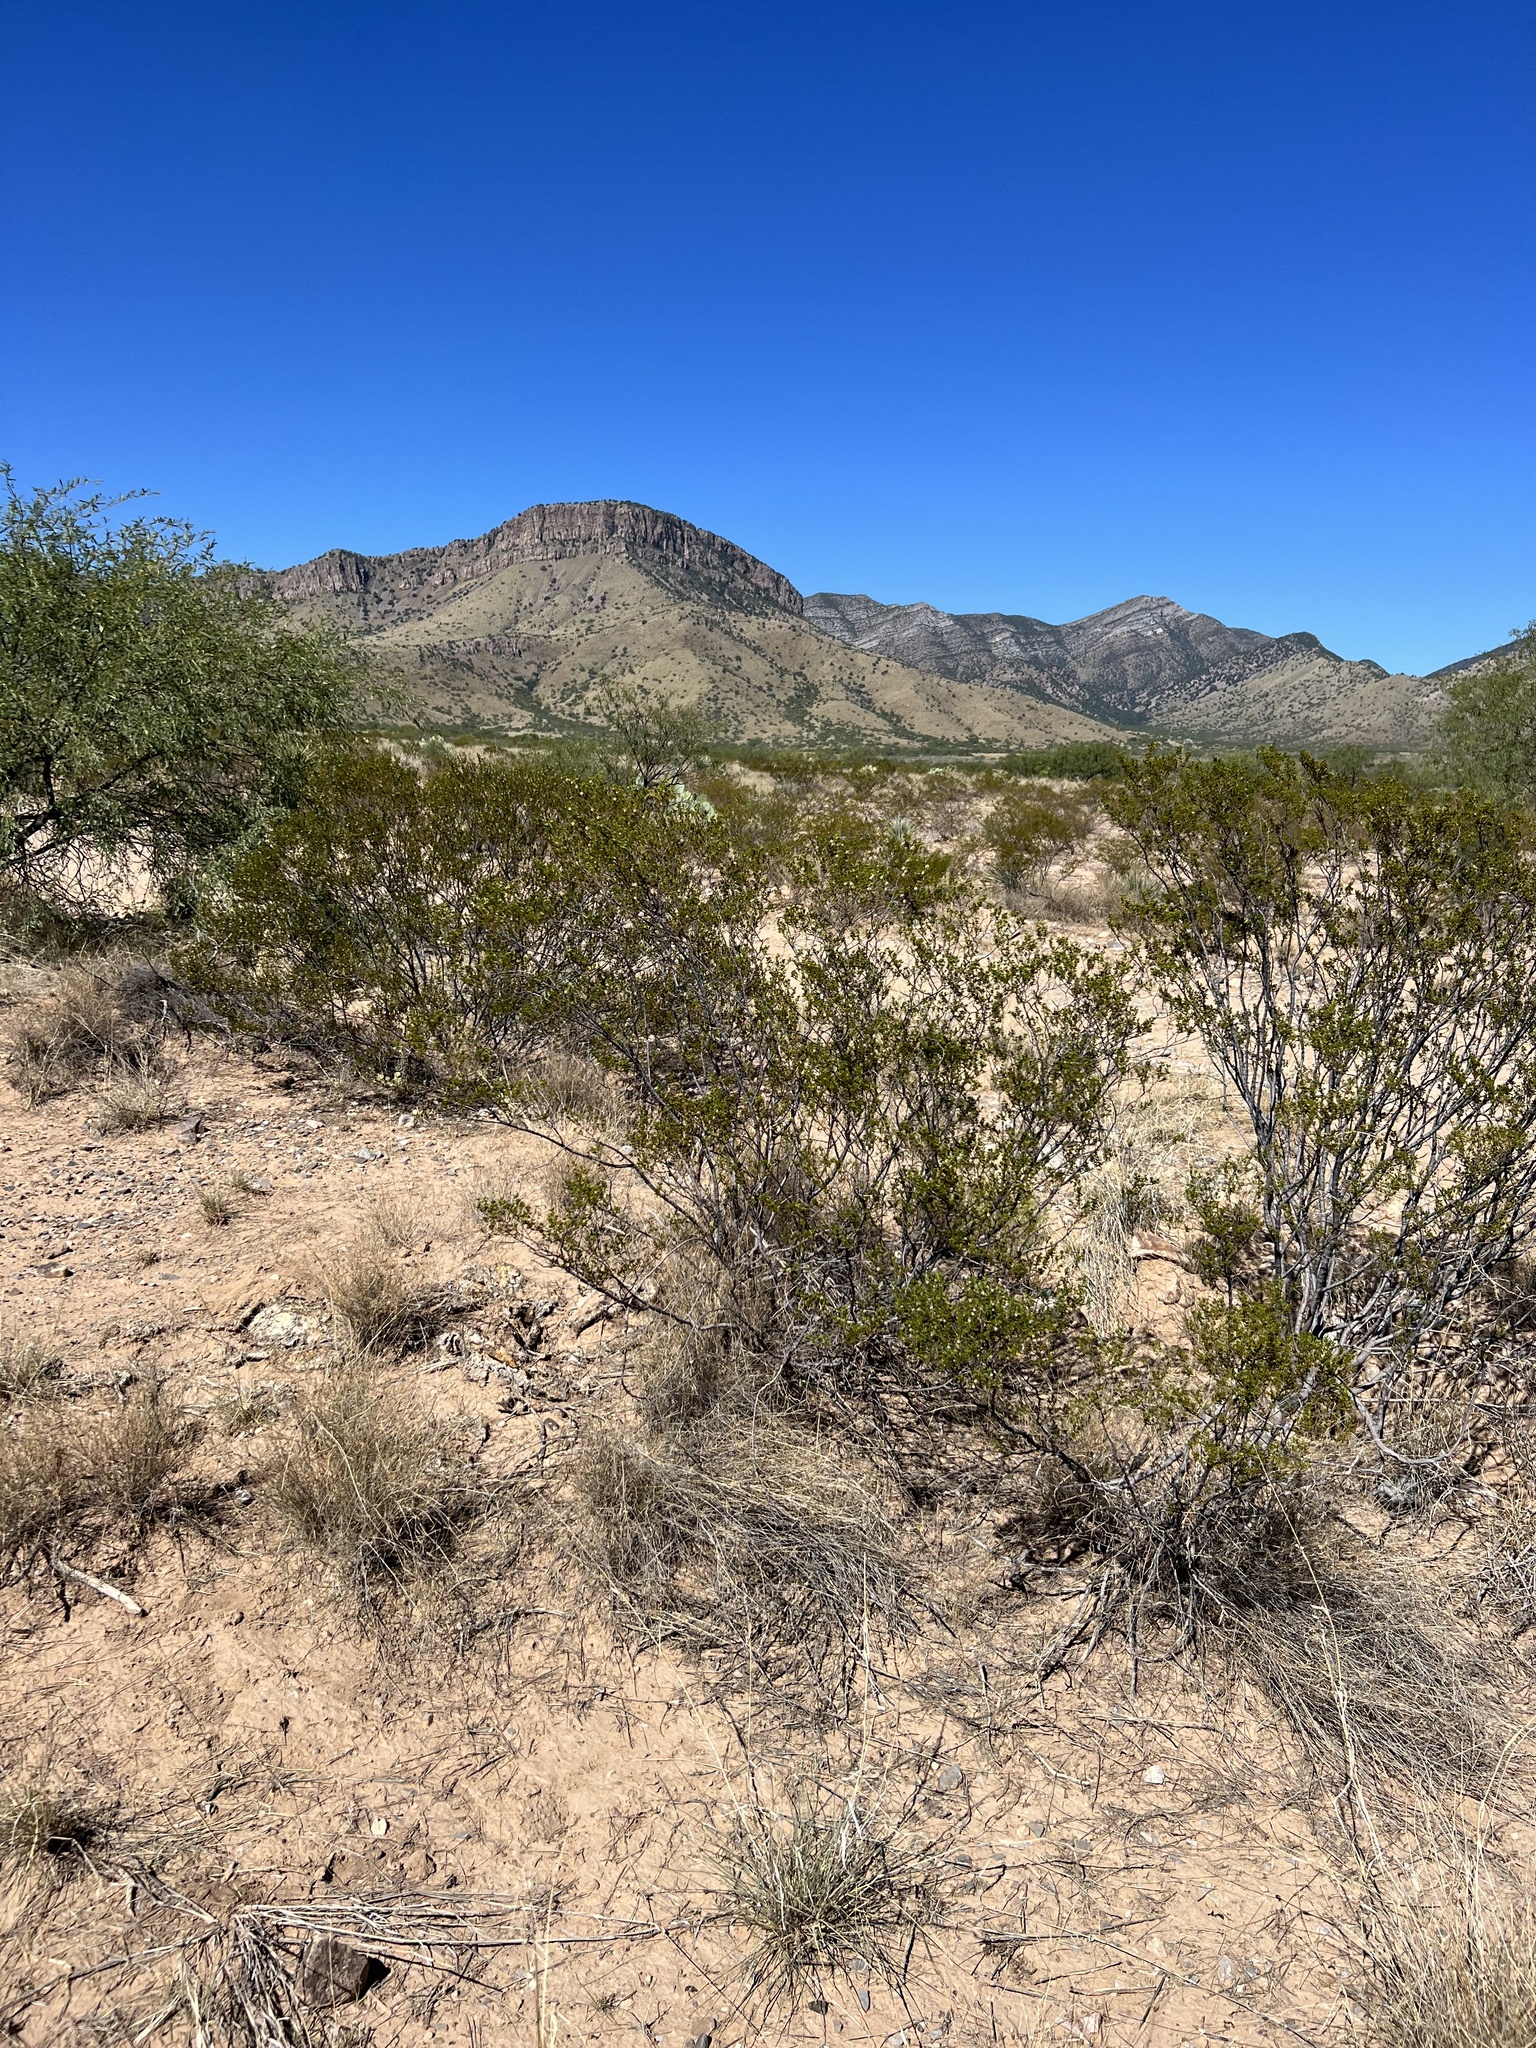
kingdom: Plantae
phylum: Tracheophyta
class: Magnoliopsida
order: Zygophyllales
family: Zygophyllaceae
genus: Larrea
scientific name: Larrea tridentata
